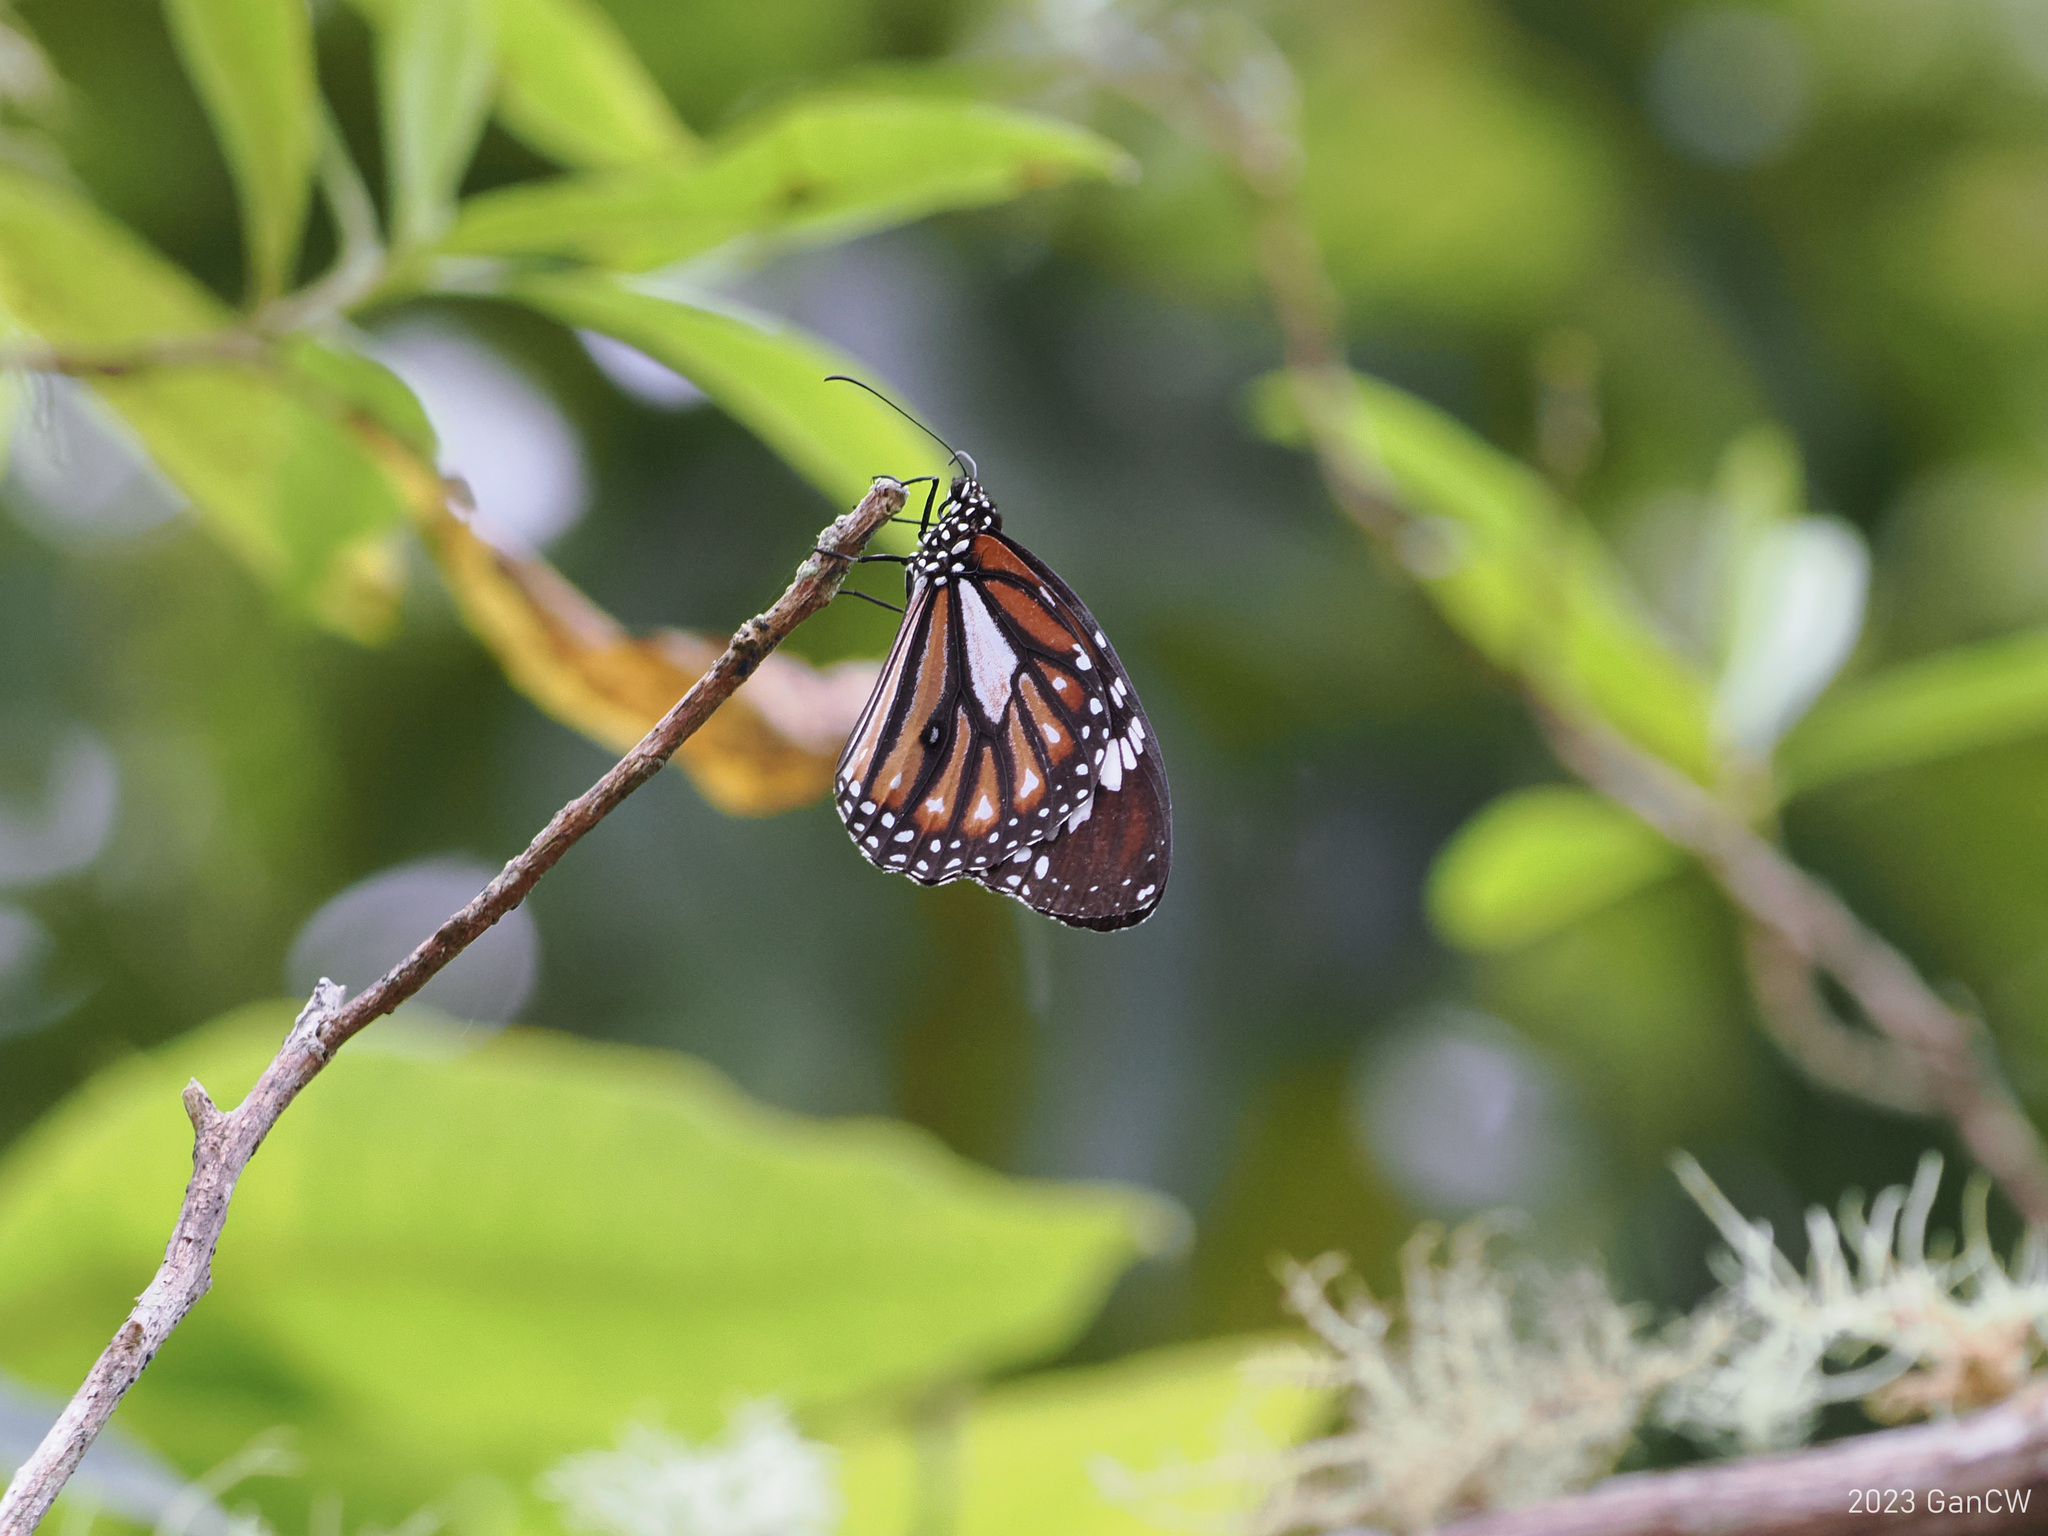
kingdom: Animalia
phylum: Arthropoda
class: Insecta
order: Lepidoptera
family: Nymphalidae
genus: Danaus
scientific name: Danaus genutia
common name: Common tiger butterfly
